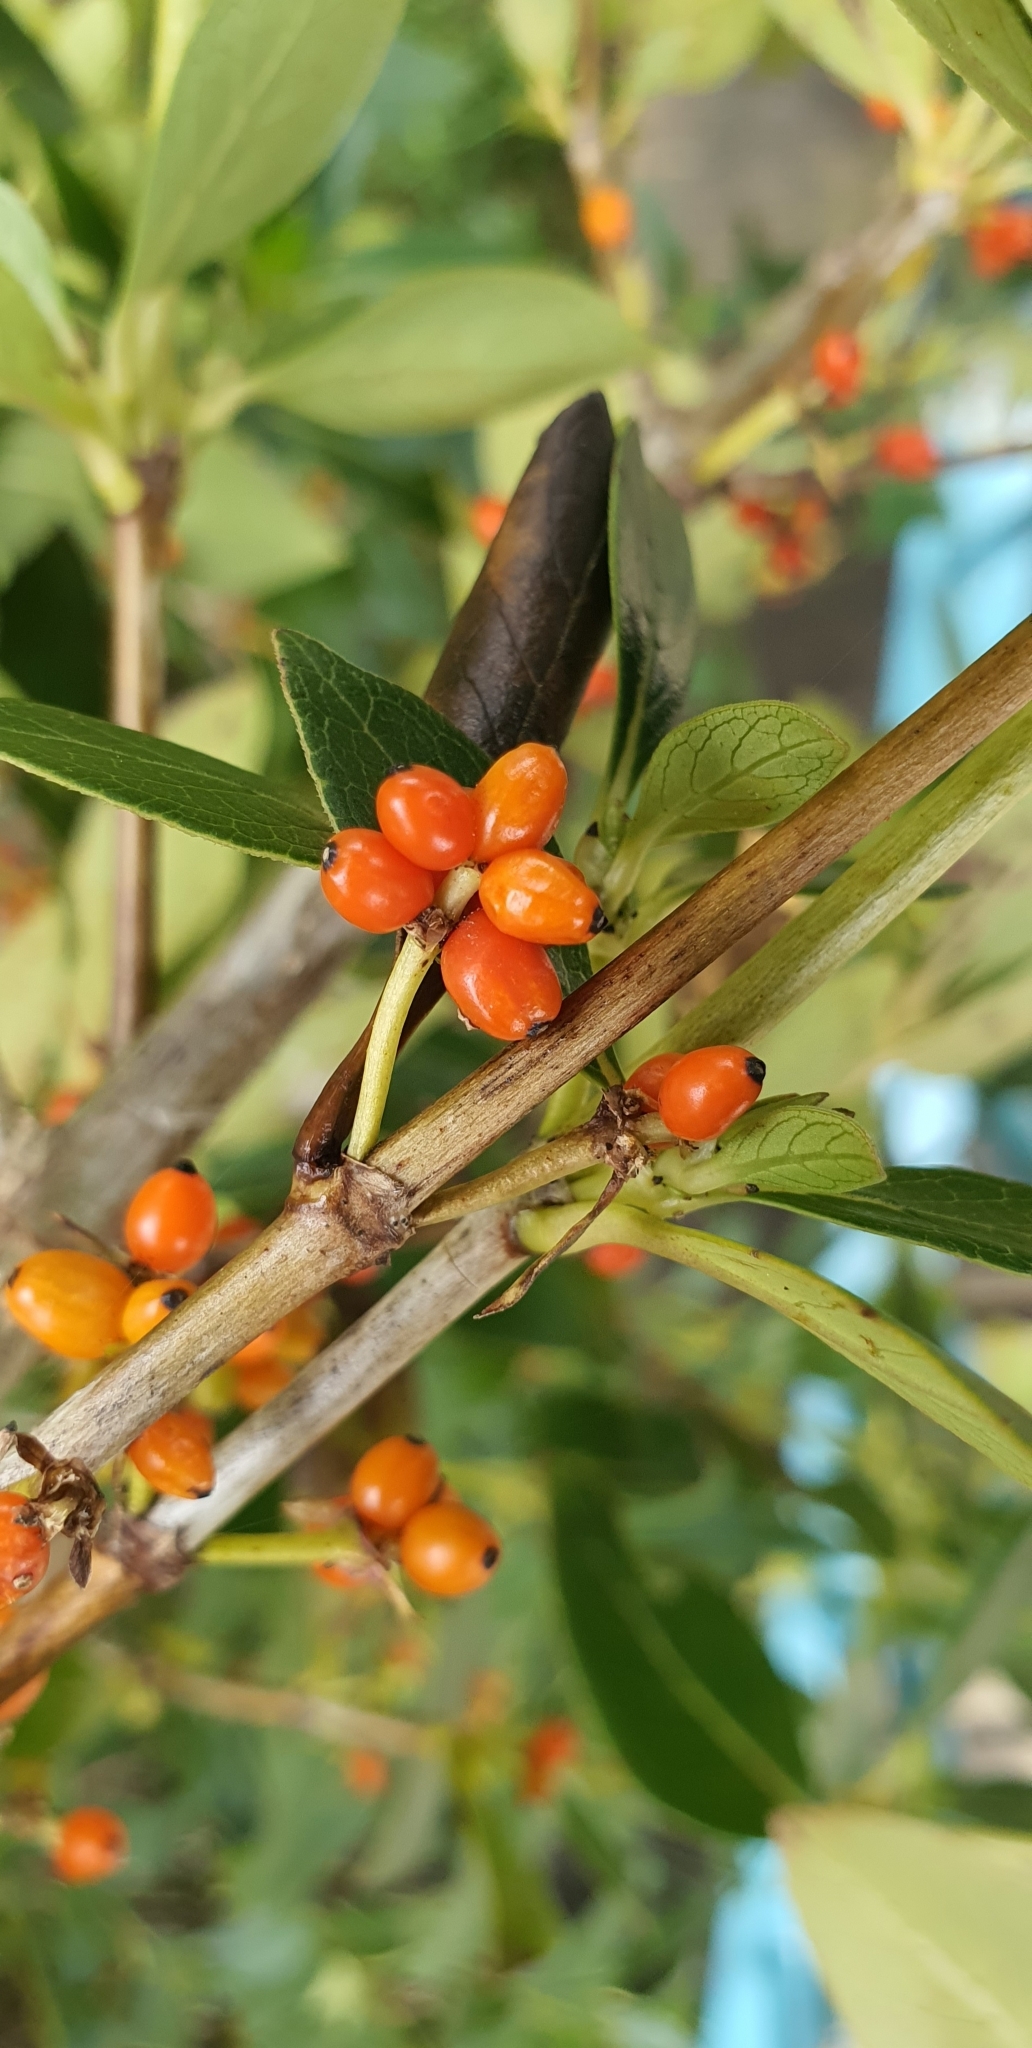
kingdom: Plantae
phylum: Tracheophyta
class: Magnoliopsida
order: Gentianales
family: Rubiaceae
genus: Coprosma
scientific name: Coprosma robusta
